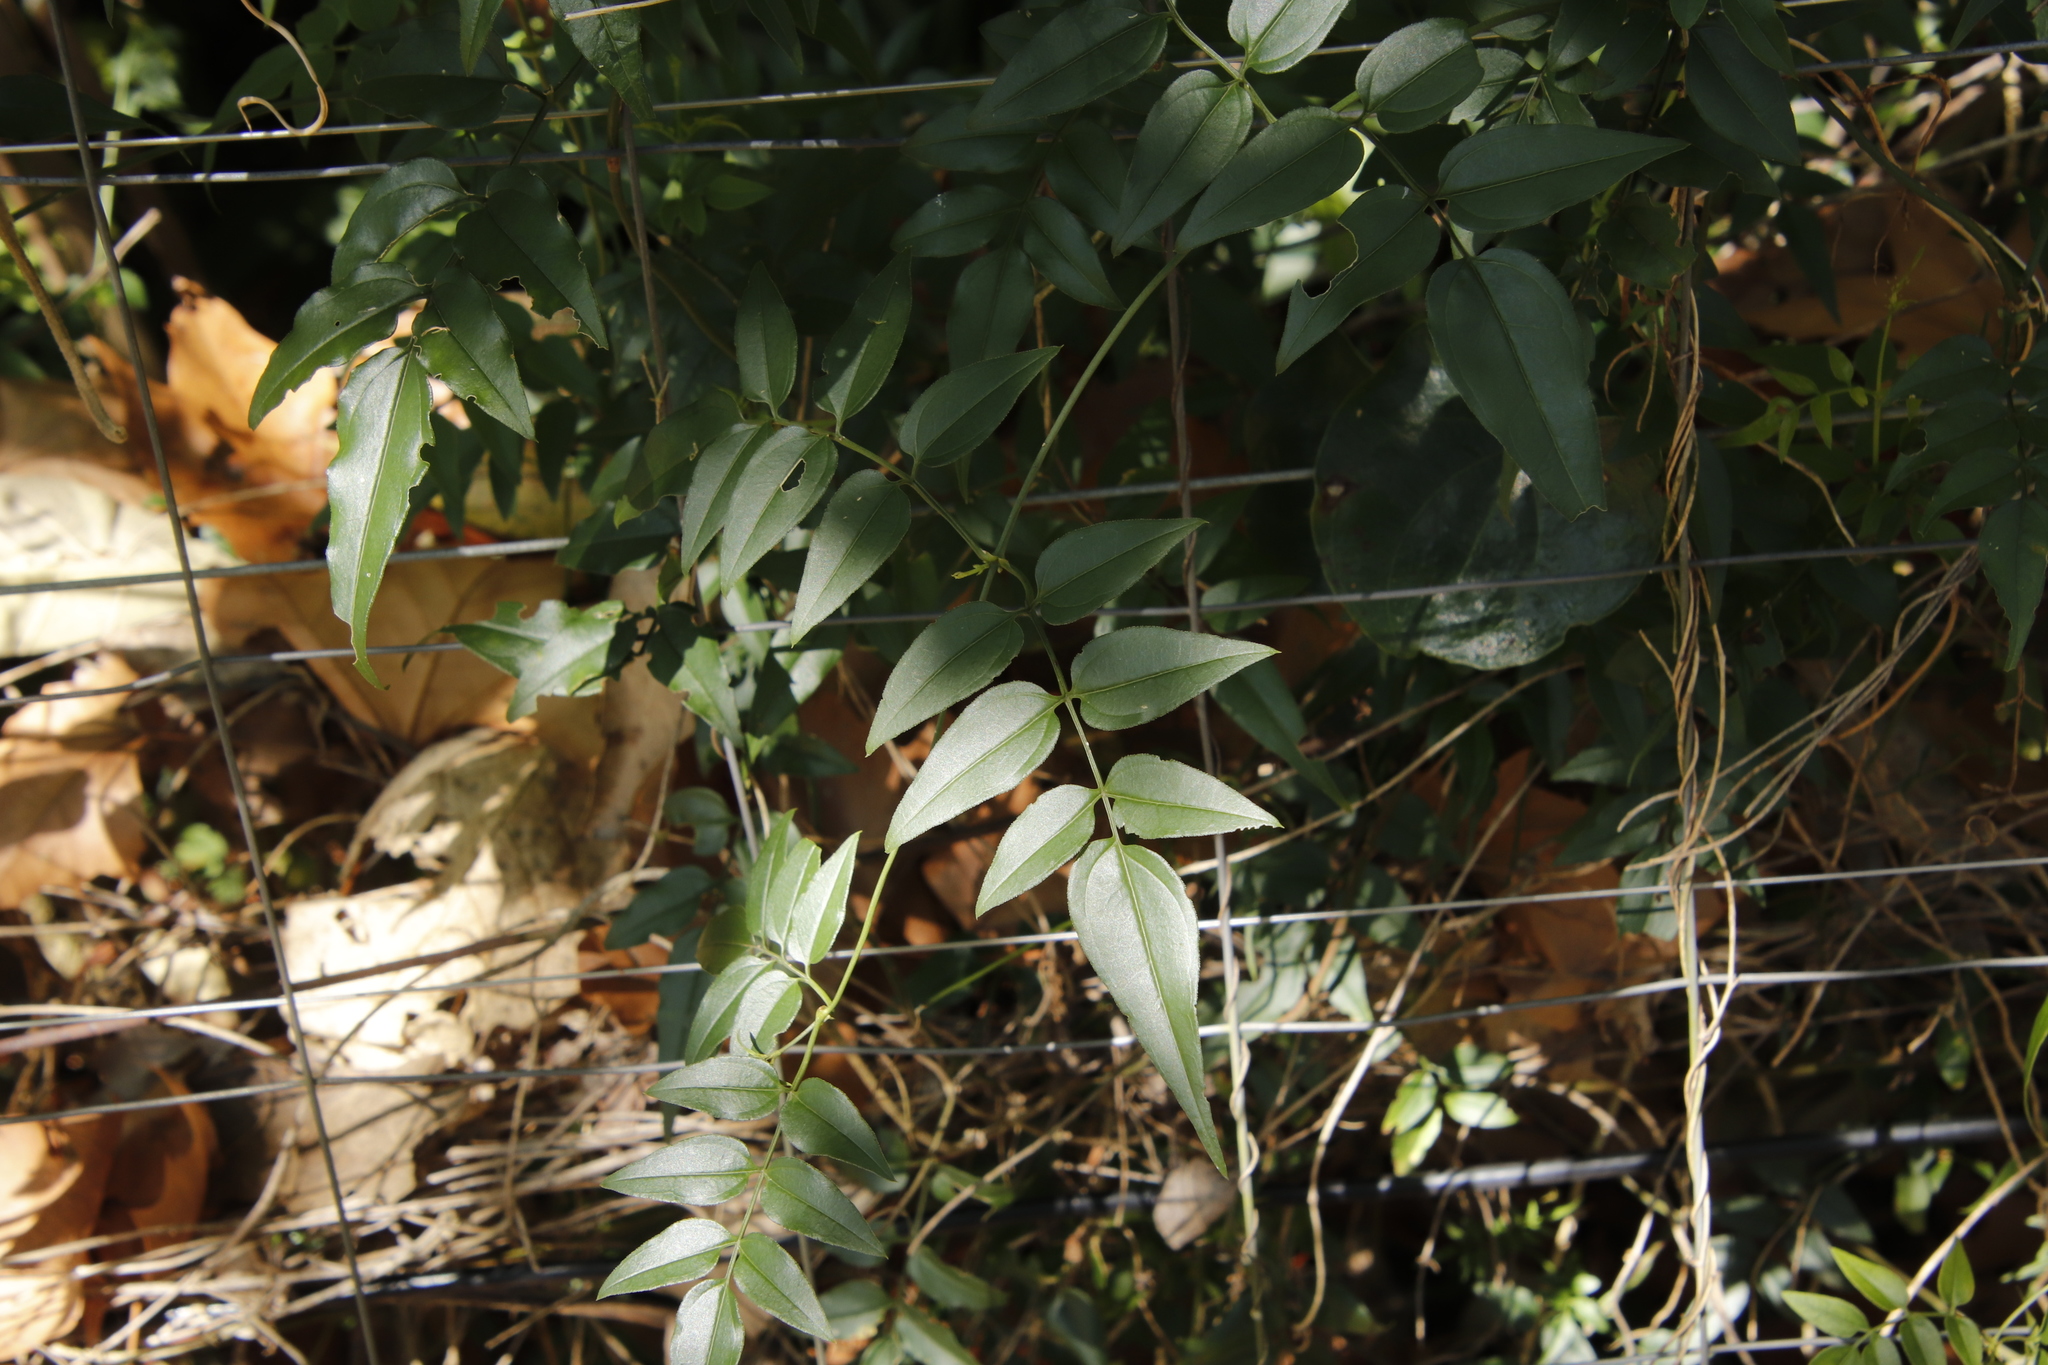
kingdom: Plantae
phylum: Tracheophyta
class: Magnoliopsida
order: Lamiales
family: Oleaceae
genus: Jasminum
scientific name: Jasminum polyanthum
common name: Pink jasmine
